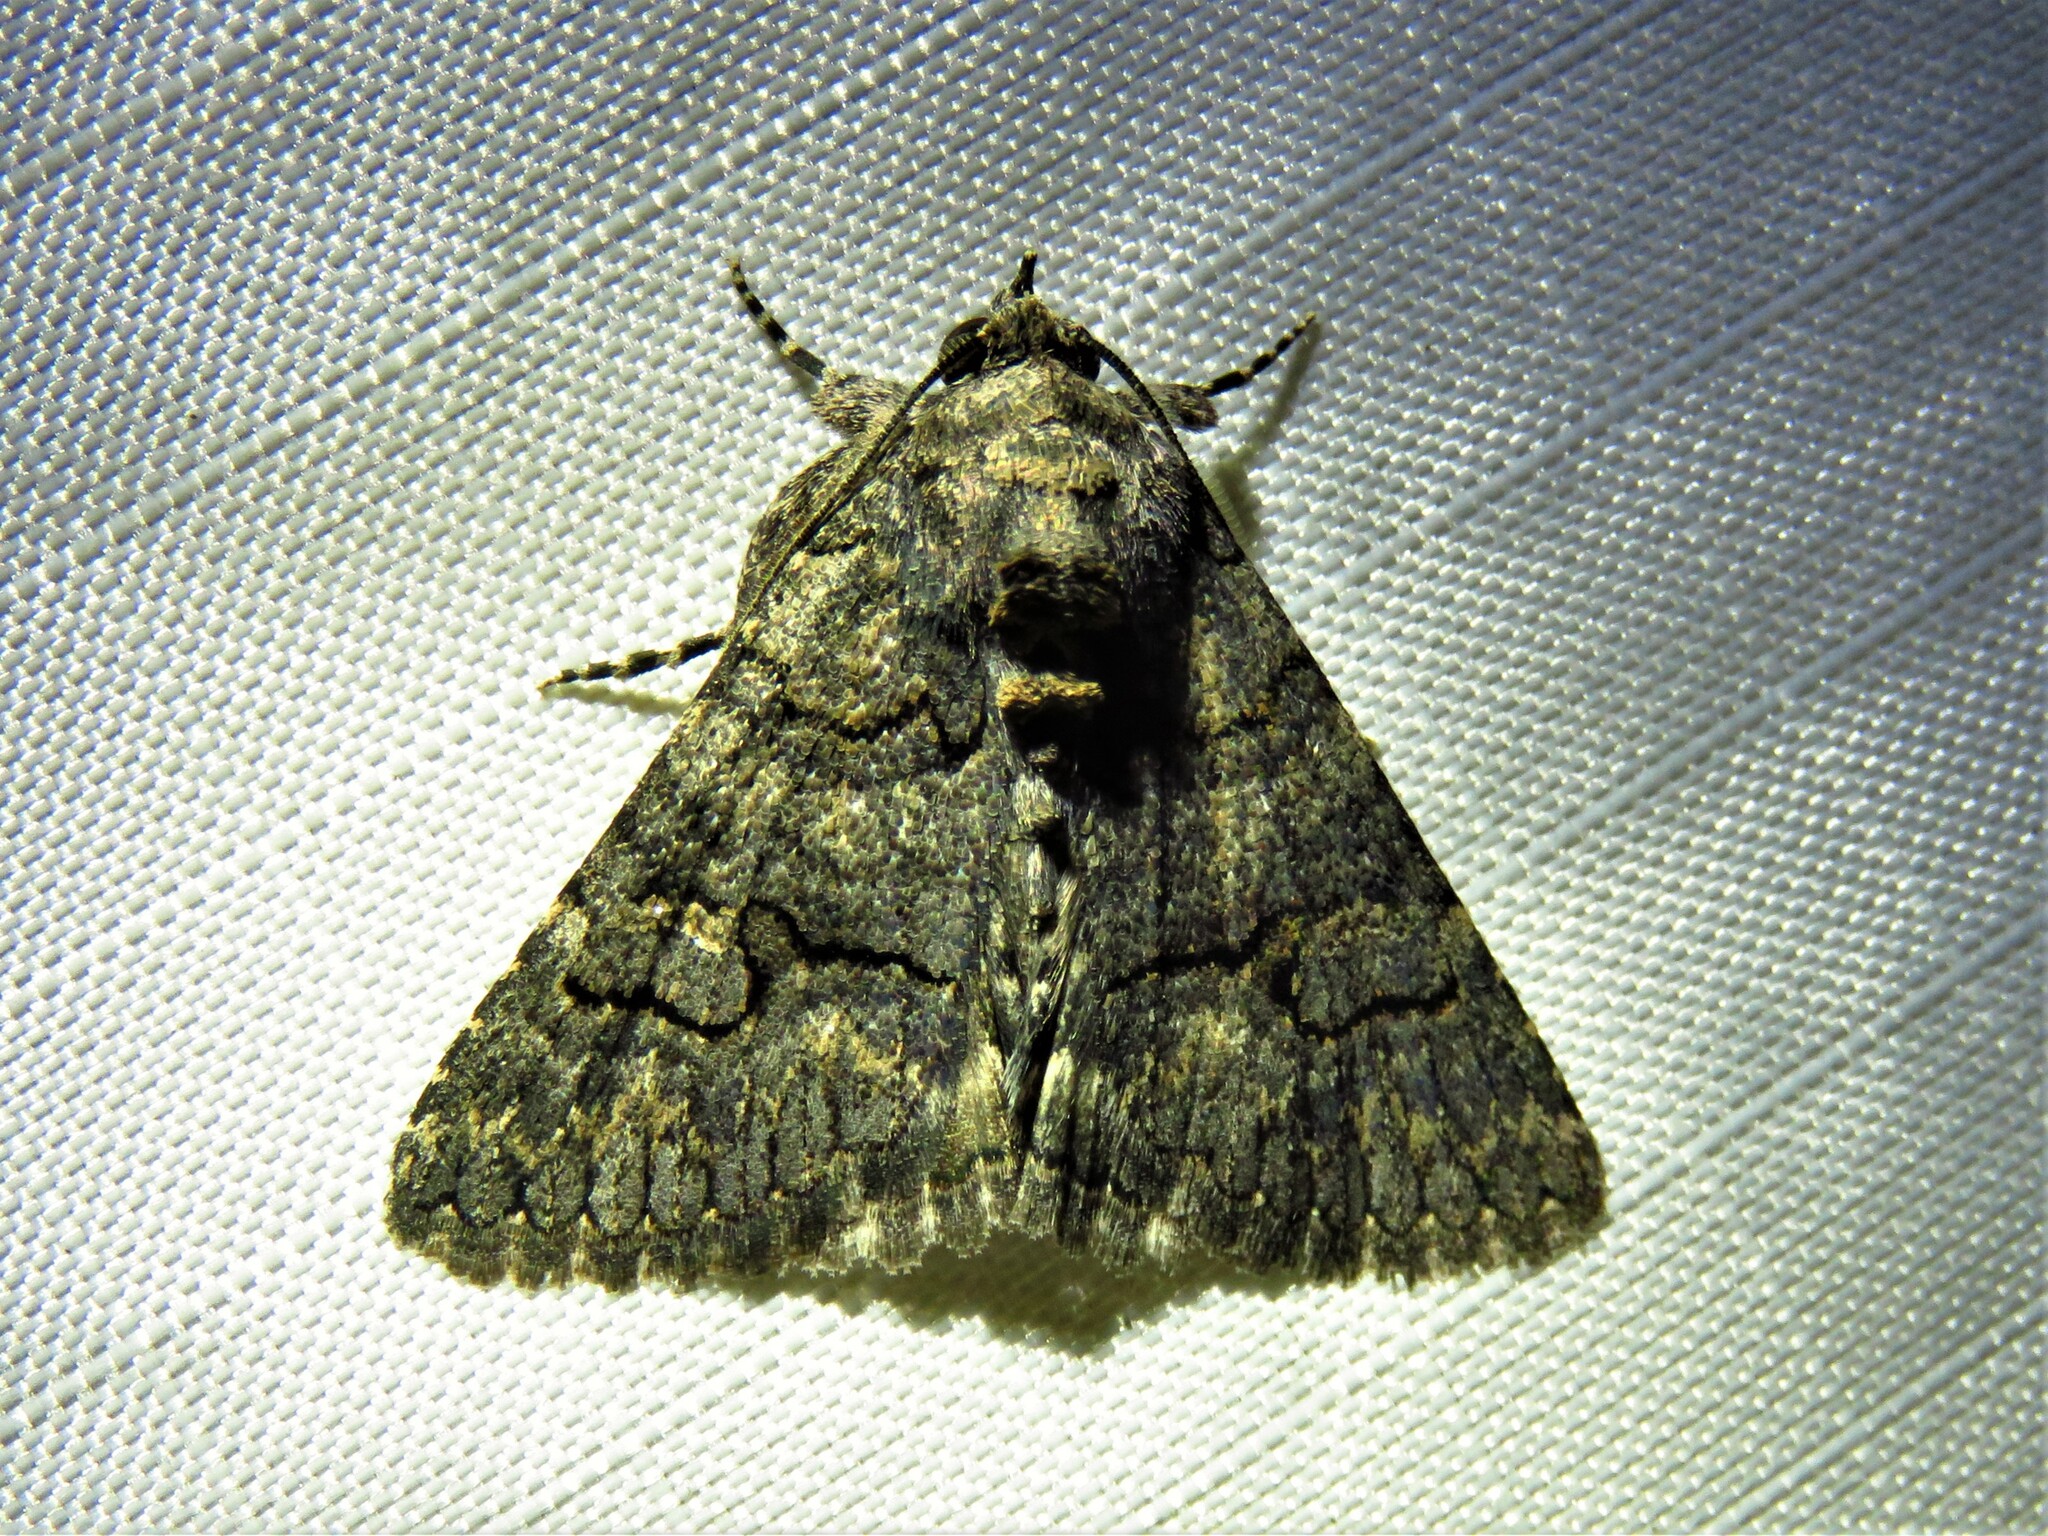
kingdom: Animalia
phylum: Arthropoda
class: Insecta
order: Lepidoptera
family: Erebidae
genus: Elousa
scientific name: Elousa mima
